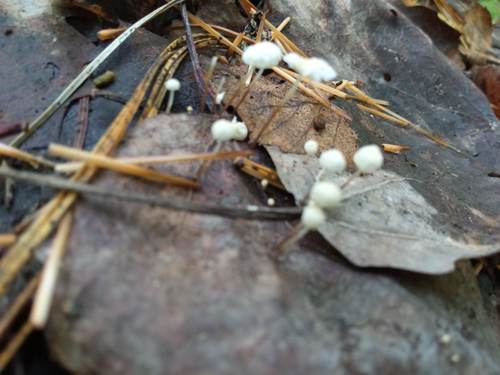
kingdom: Fungi
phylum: Basidiomycota
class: Agaricomycetes
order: Agaricales
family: Marasmiaceae
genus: Marasmius
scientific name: Marasmius epiphyllus
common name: Leaf parachute
